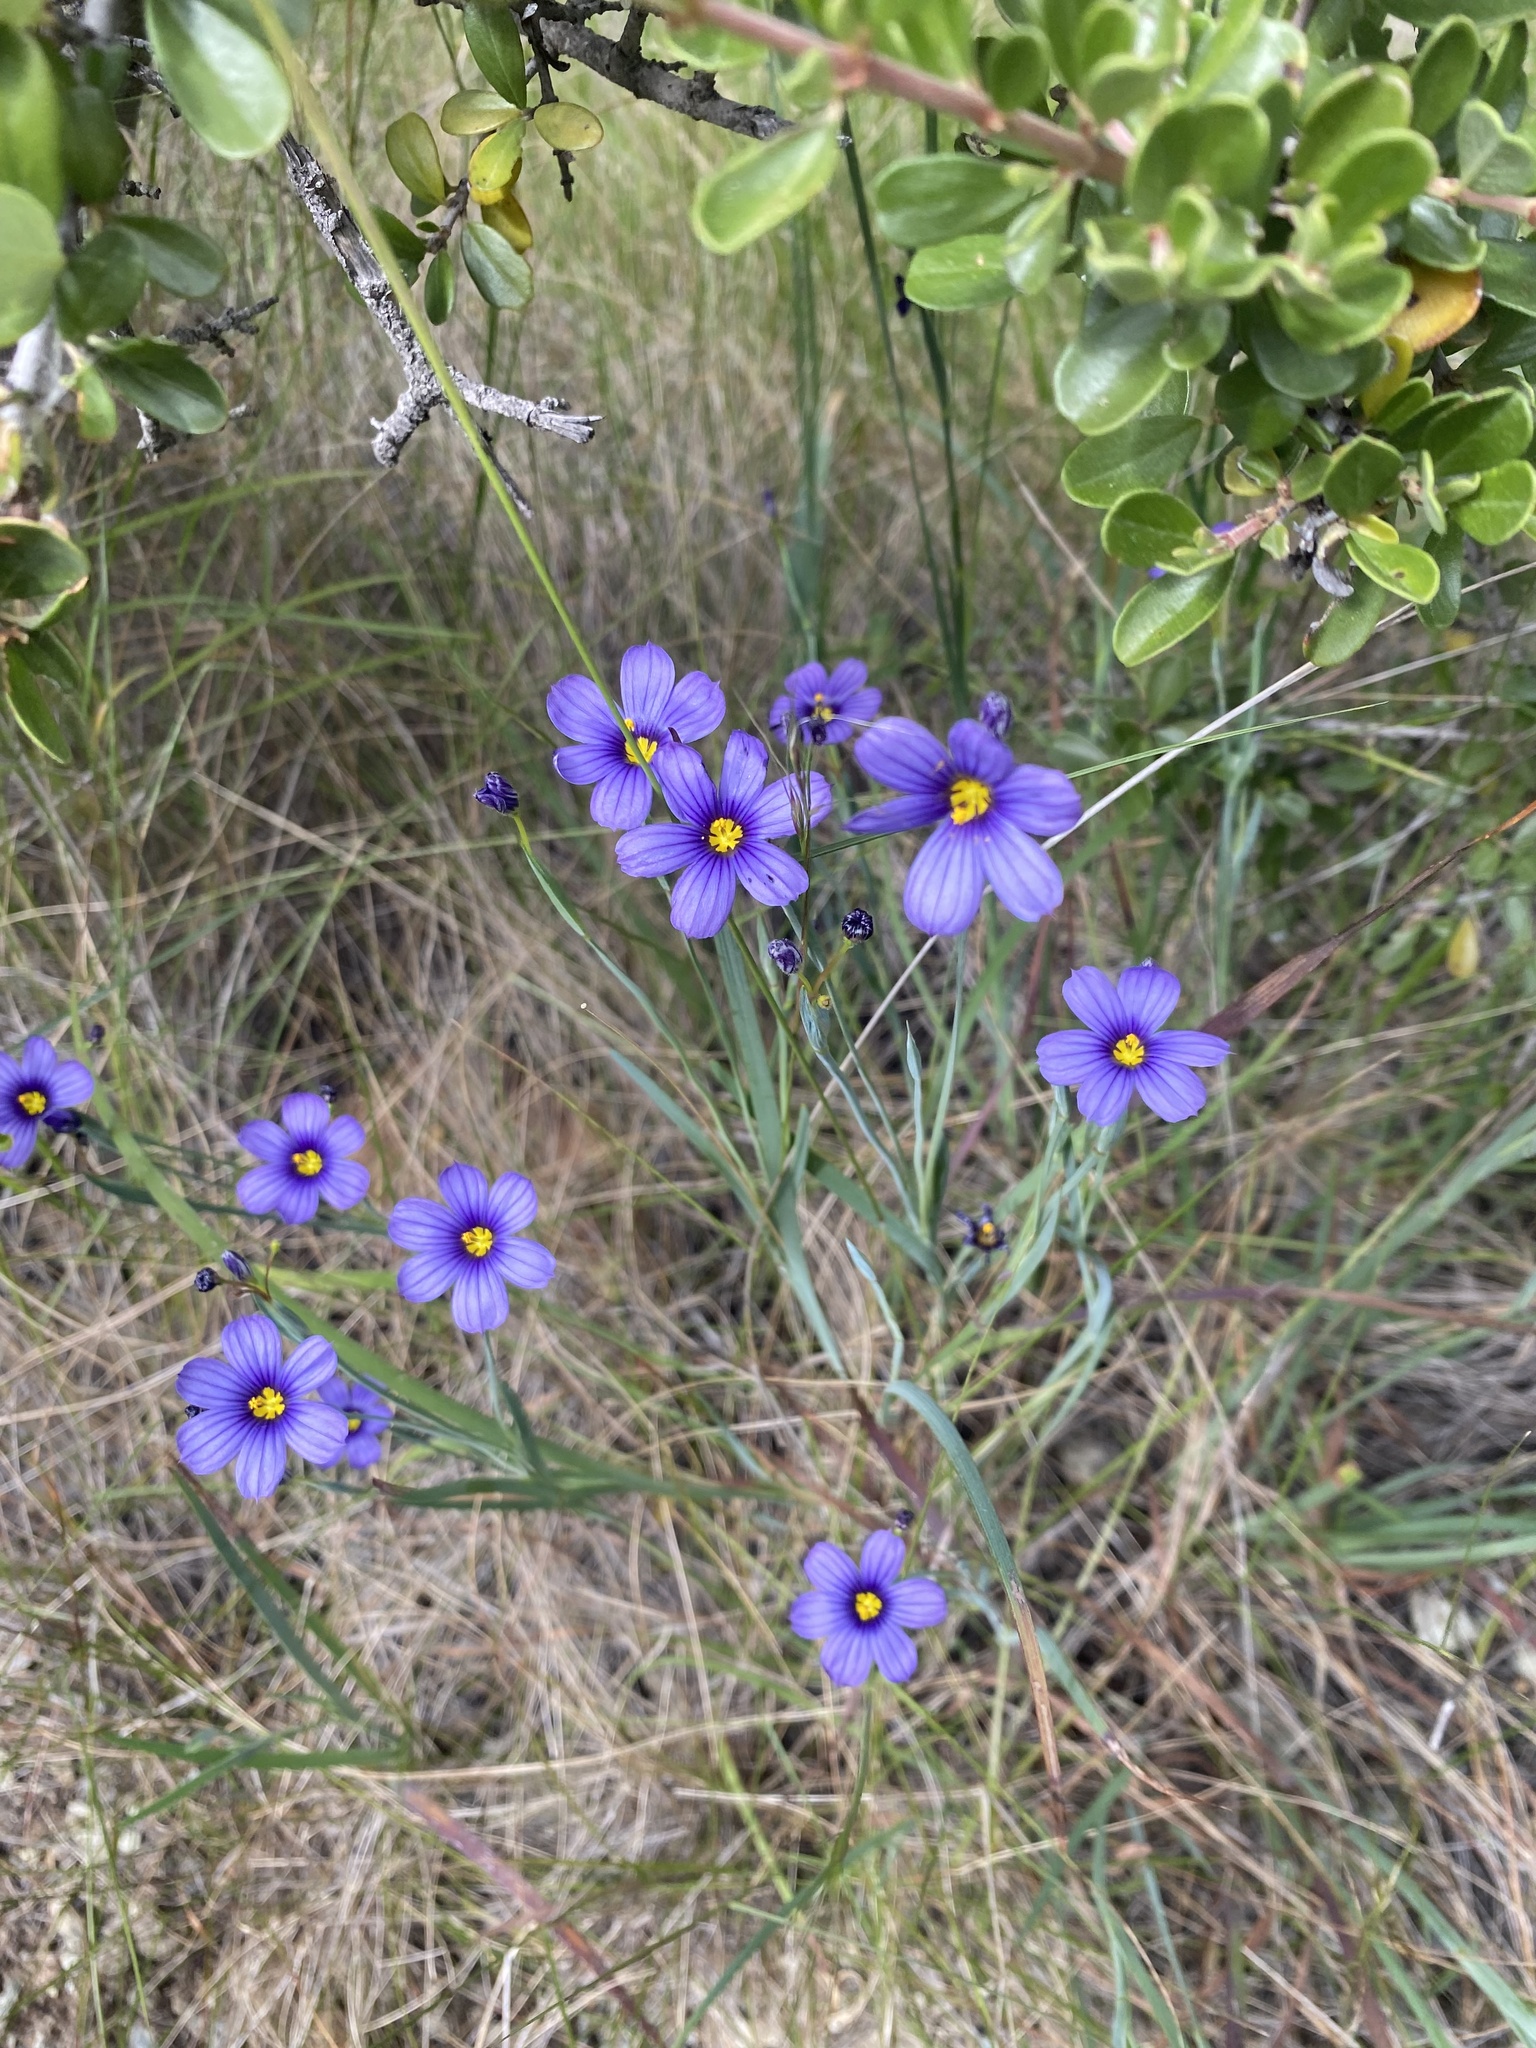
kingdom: Plantae
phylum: Tracheophyta
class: Liliopsida
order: Asparagales
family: Iridaceae
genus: Sisyrinchium
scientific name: Sisyrinchium bellum
